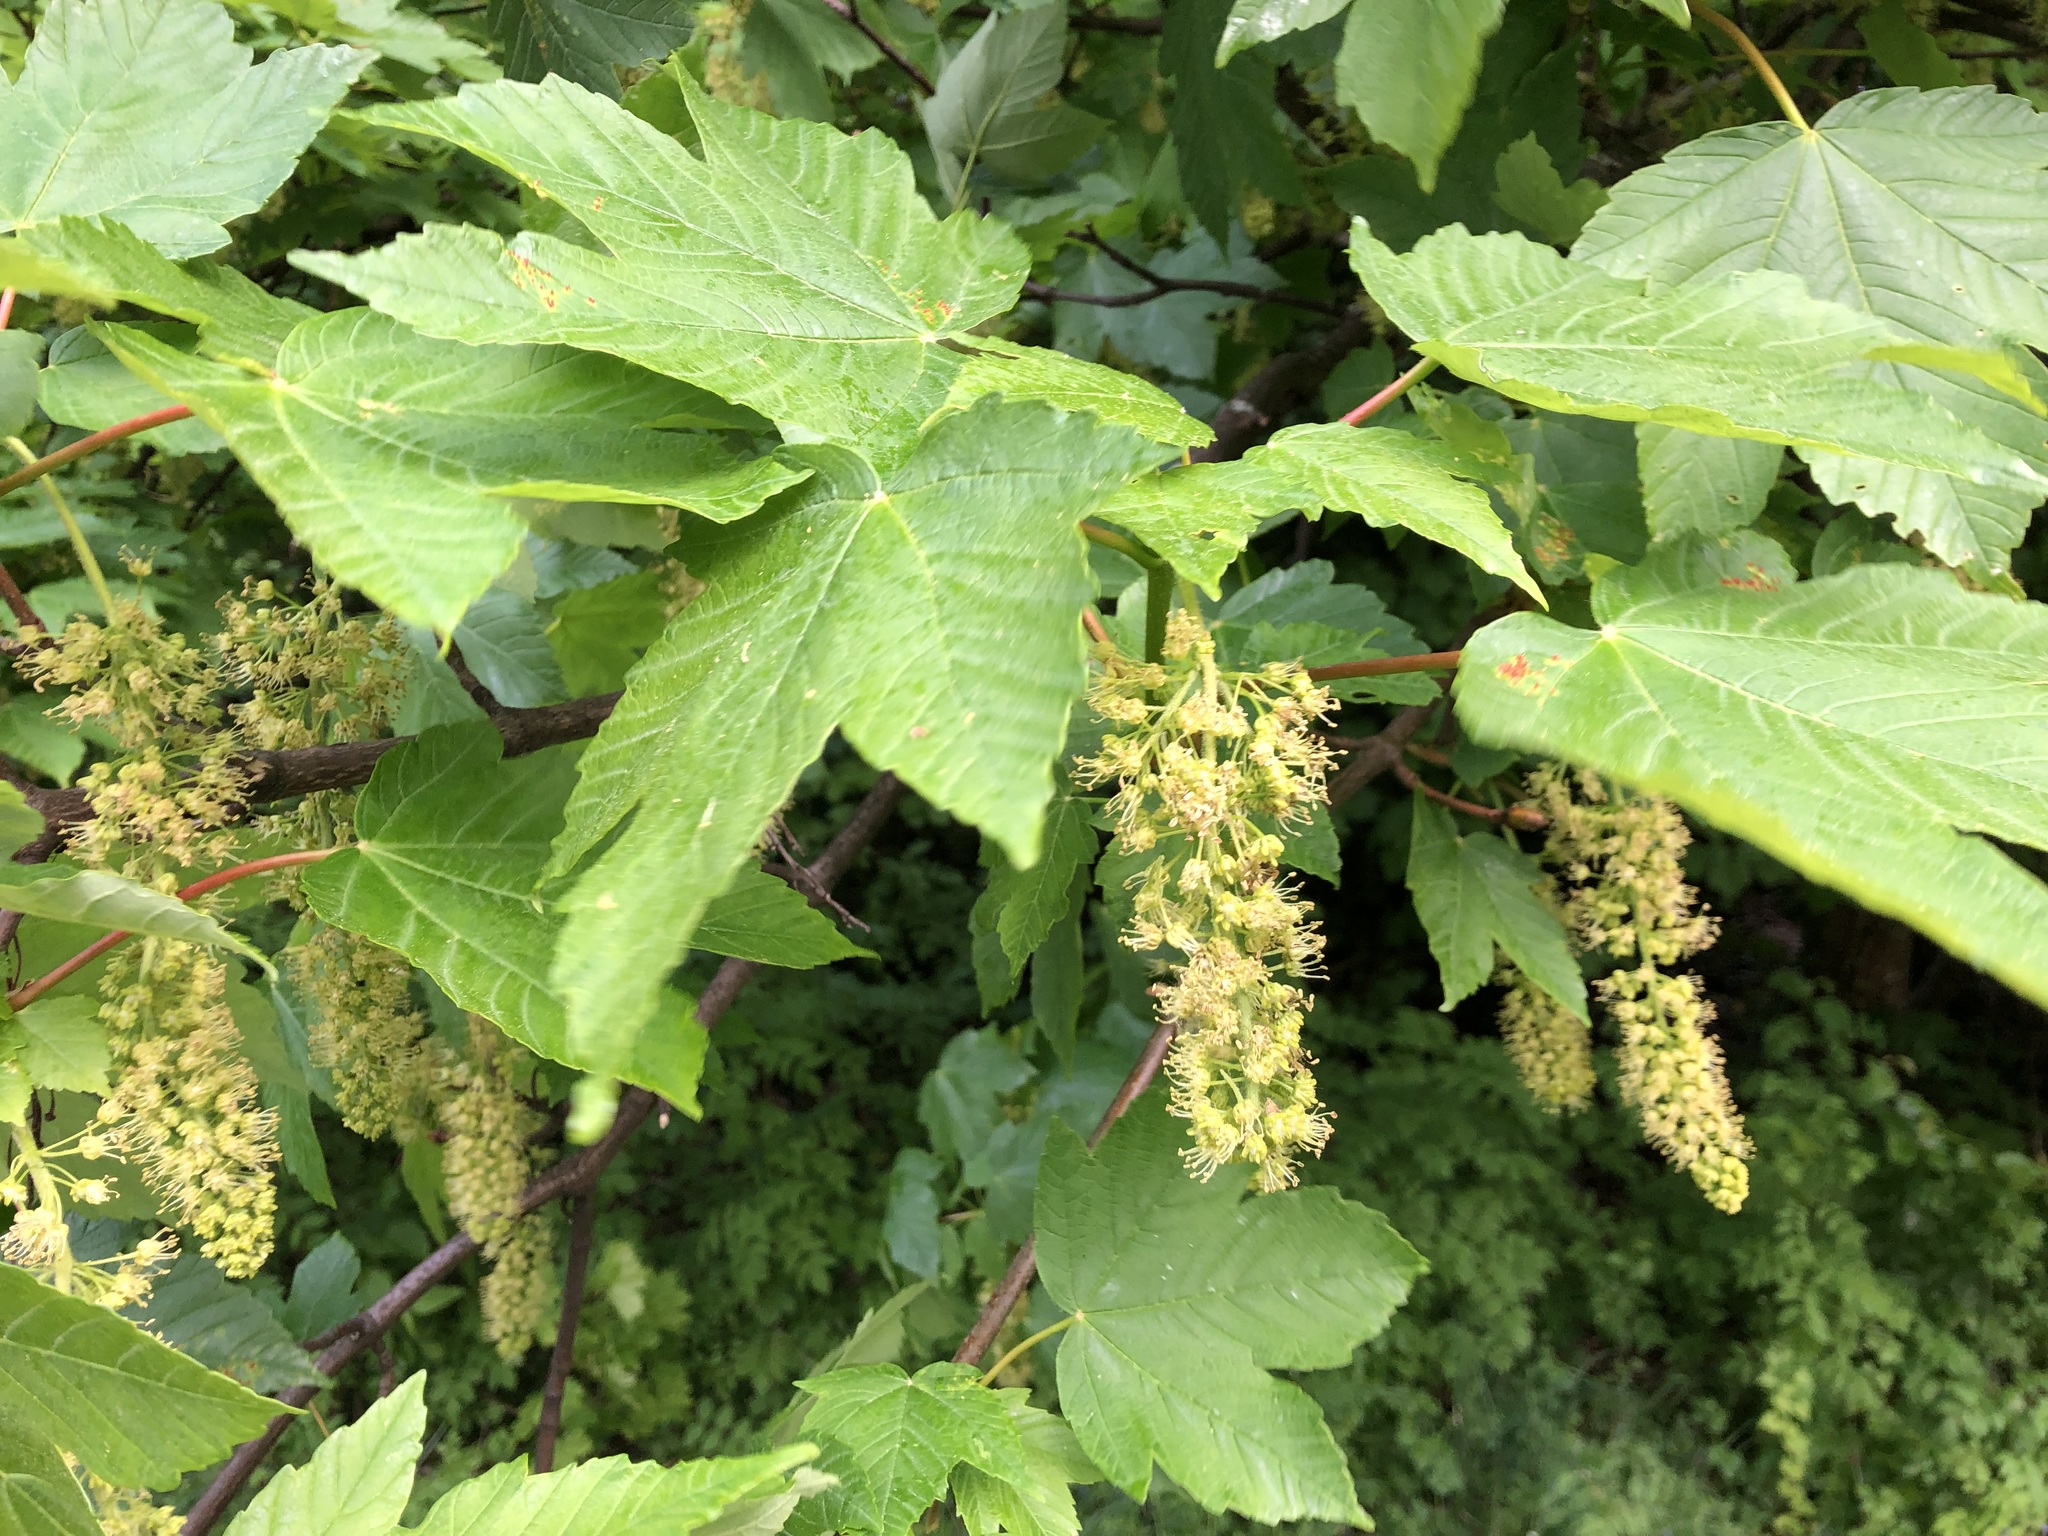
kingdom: Plantae
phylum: Tracheophyta
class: Magnoliopsida
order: Sapindales
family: Sapindaceae
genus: Acer
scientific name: Acer pseudoplatanus
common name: Sycamore
